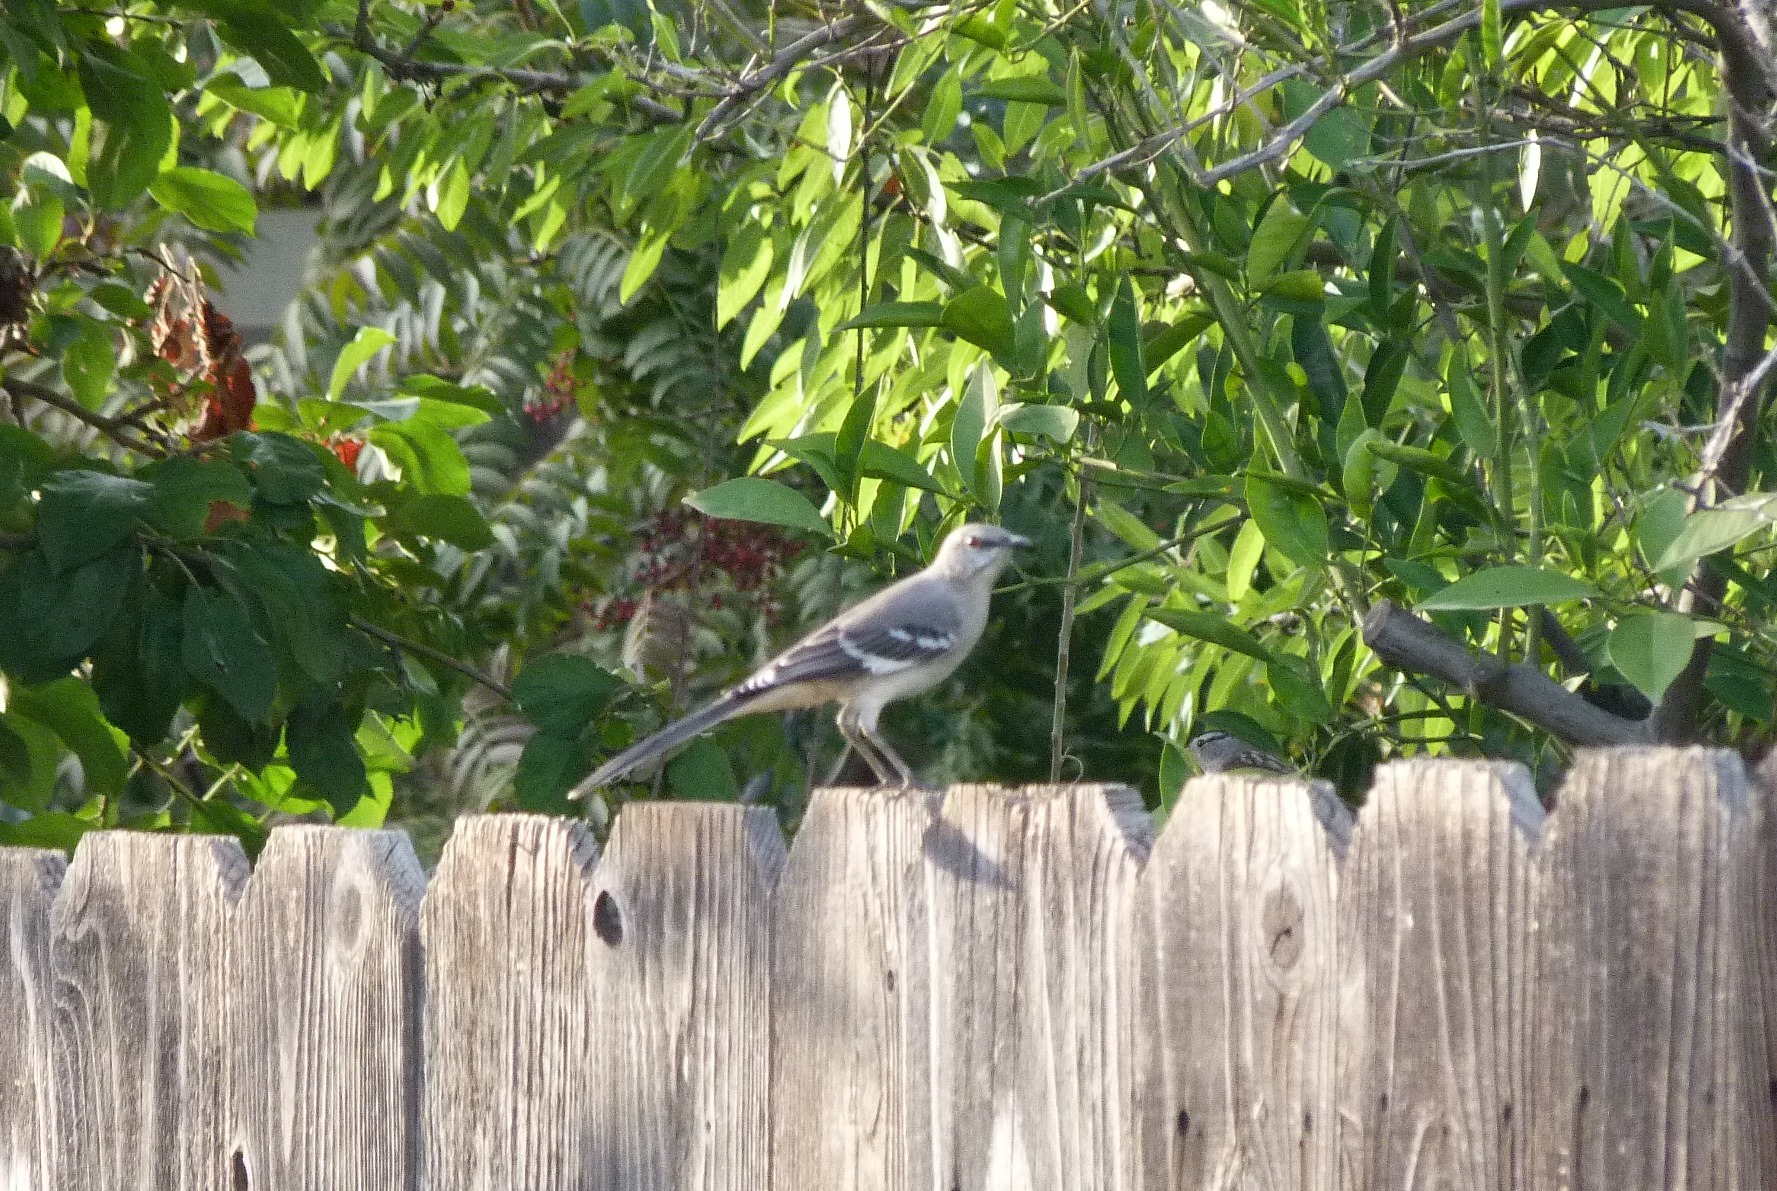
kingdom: Animalia
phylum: Chordata
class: Aves
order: Passeriformes
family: Mimidae
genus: Mimus
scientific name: Mimus polyglottos
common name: Northern mockingbird
